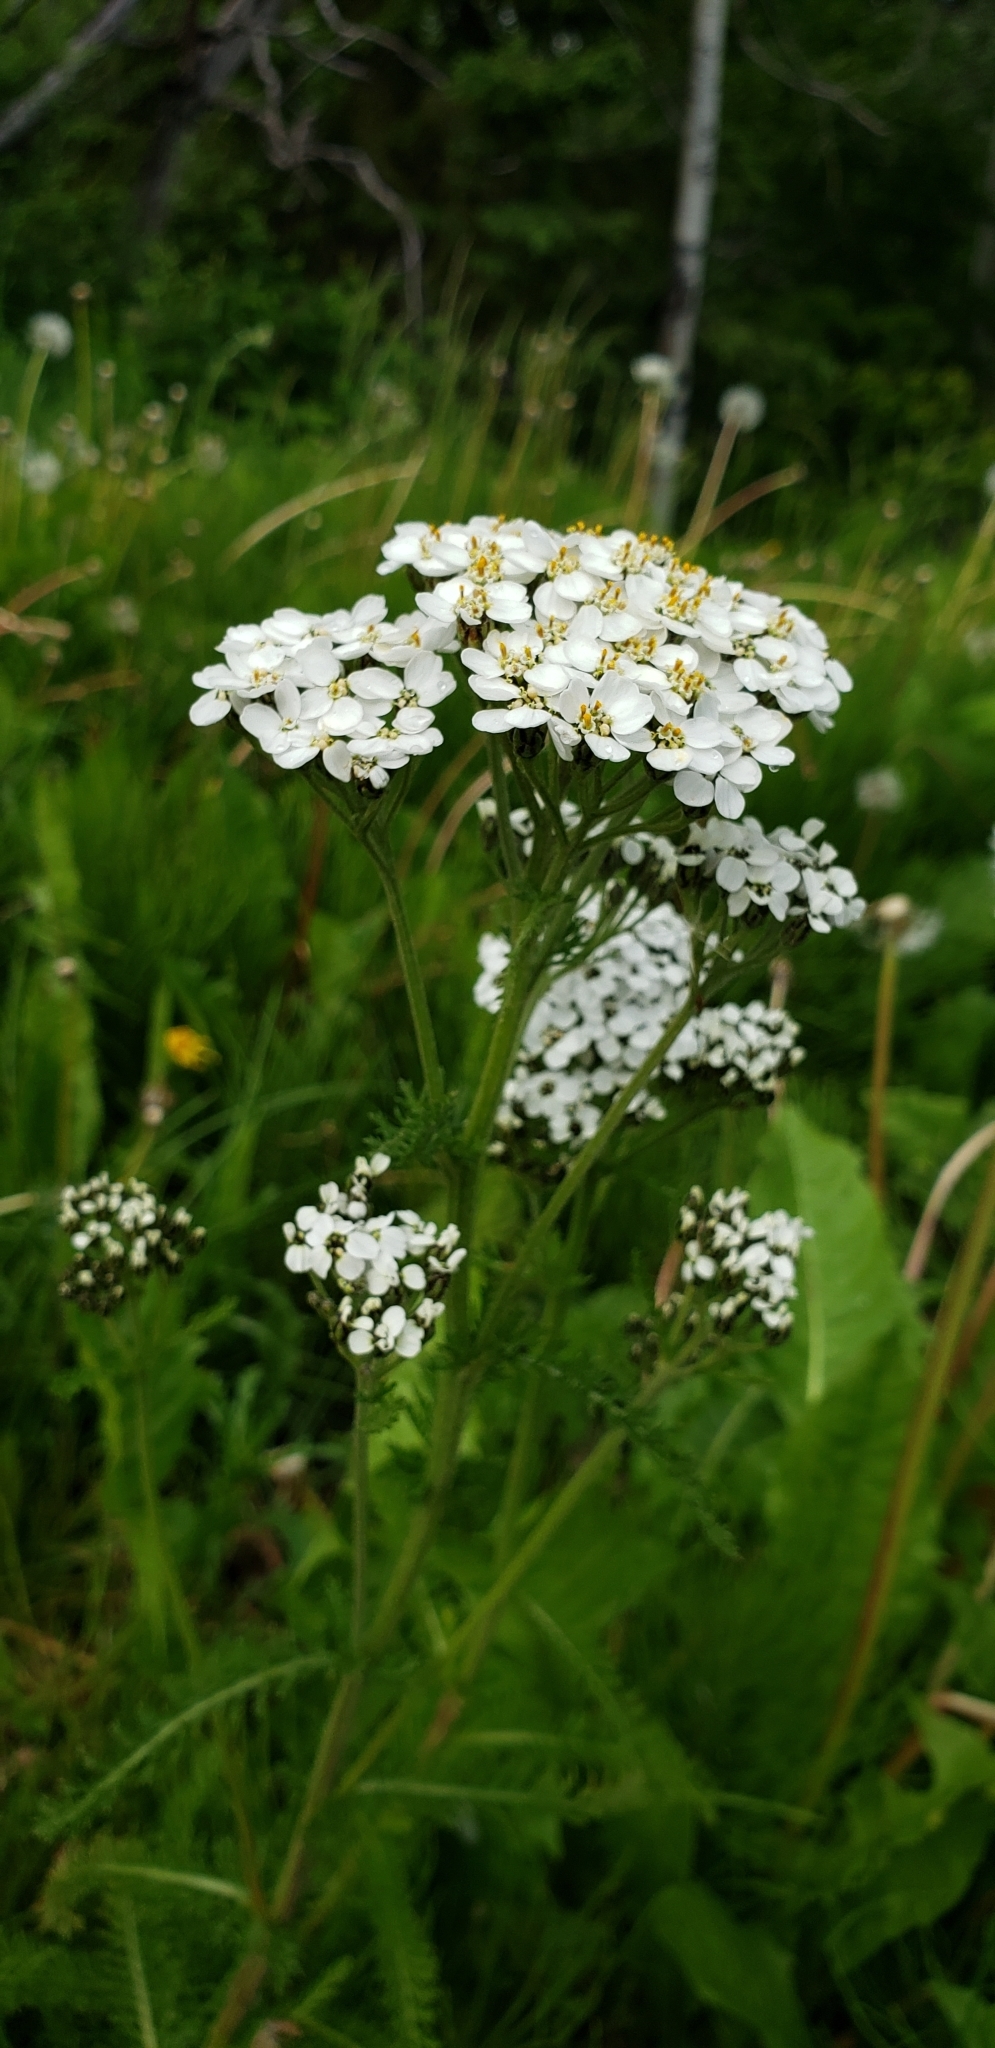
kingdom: Plantae
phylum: Tracheophyta
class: Magnoliopsida
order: Asterales
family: Asteraceae
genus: Achillea
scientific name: Achillea millefolium
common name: Yarrow
